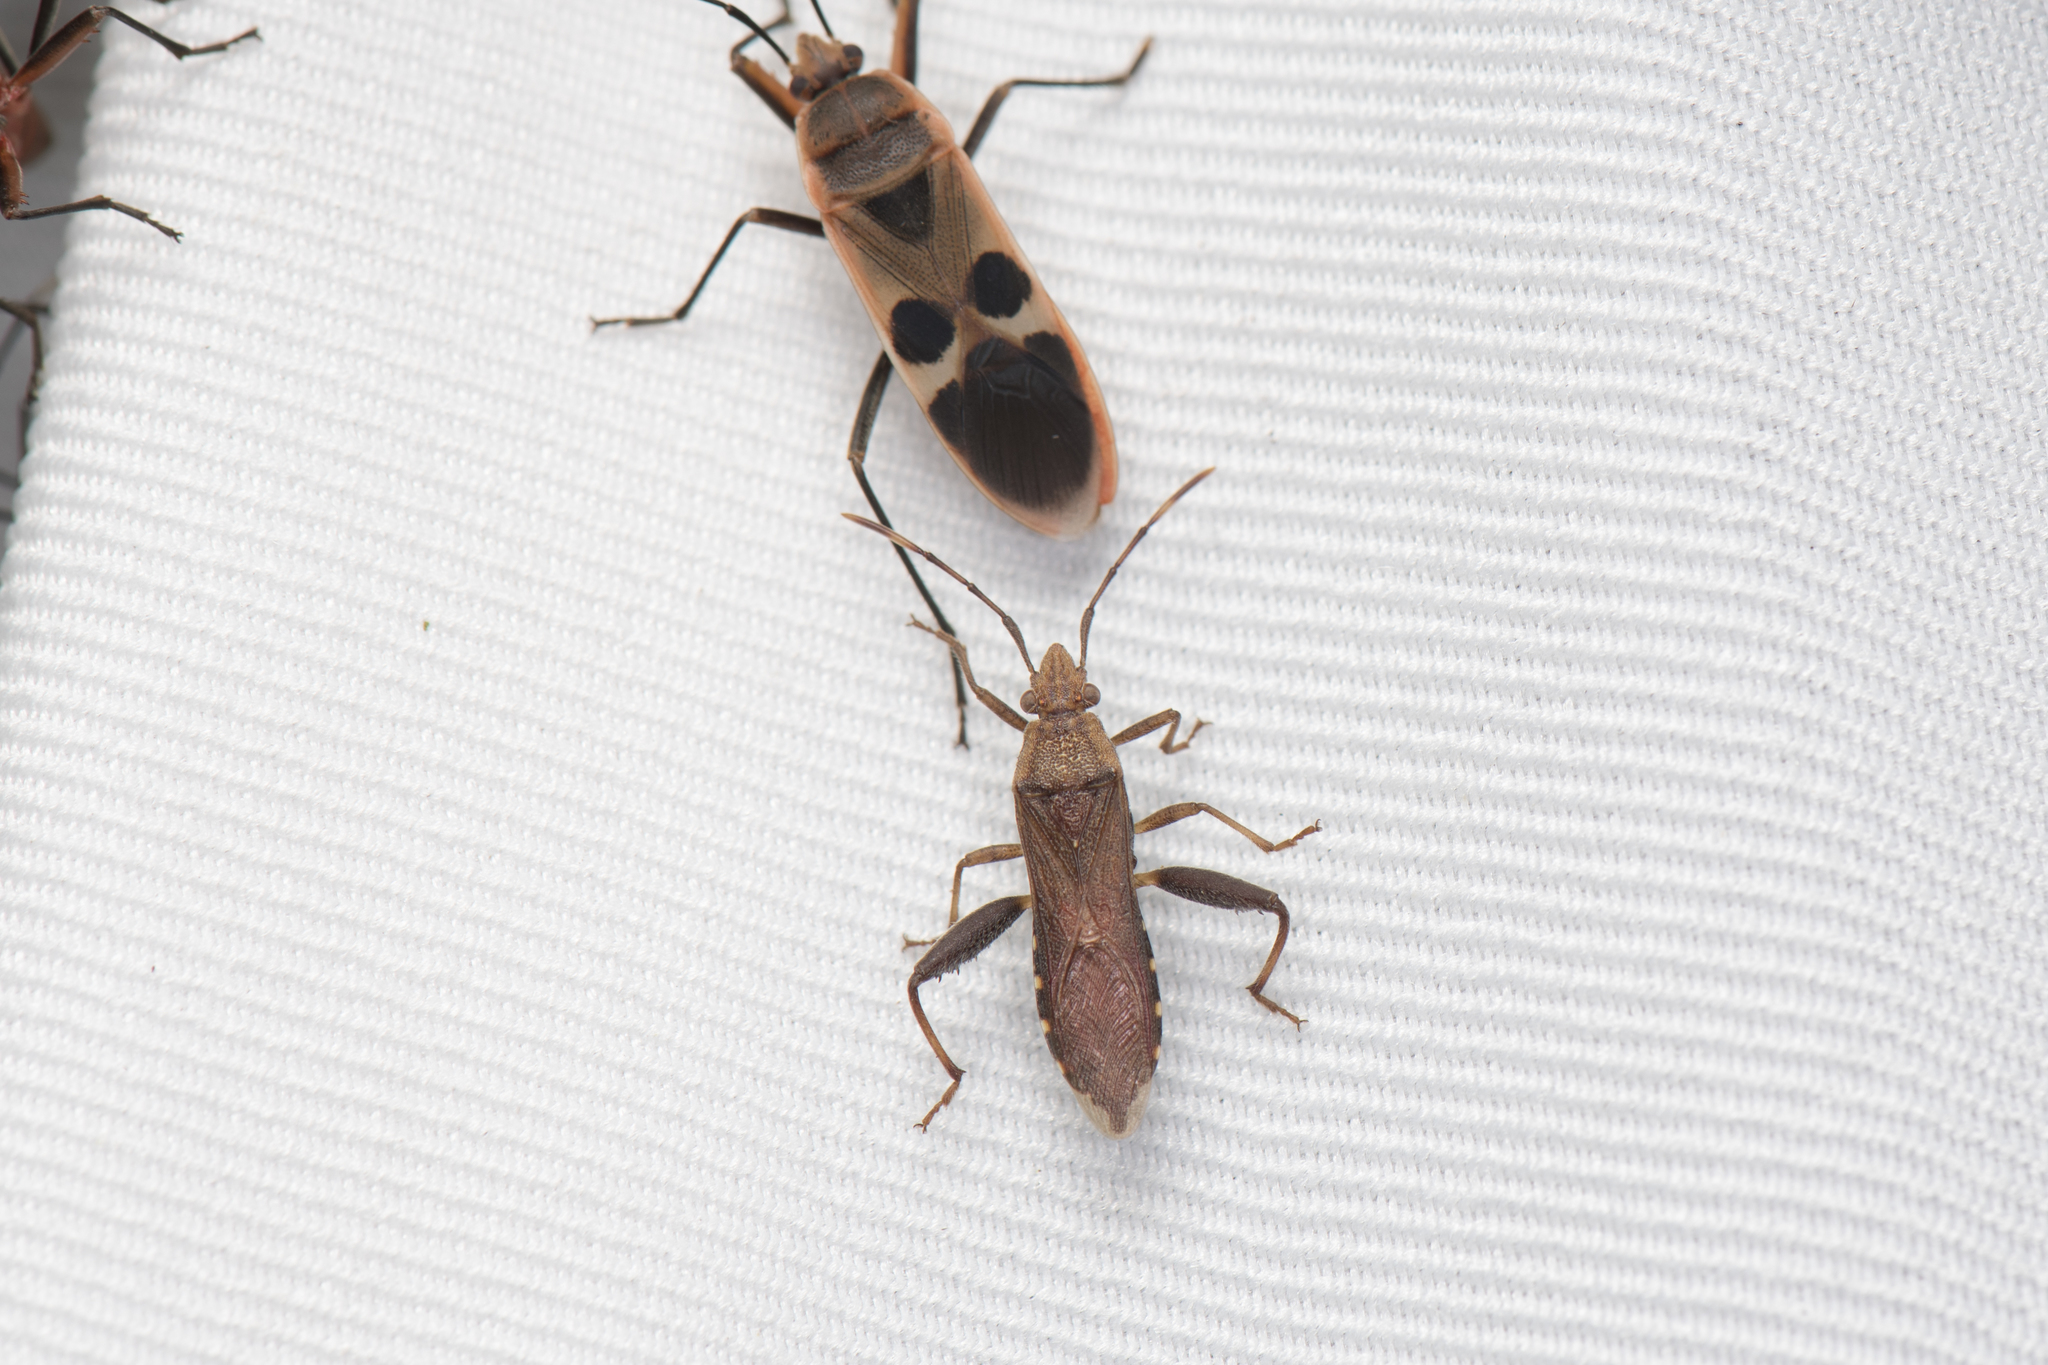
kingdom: Animalia
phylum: Arthropoda
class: Insecta
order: Hemiptera
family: Alydidae
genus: Daclera
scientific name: Daclera levana
